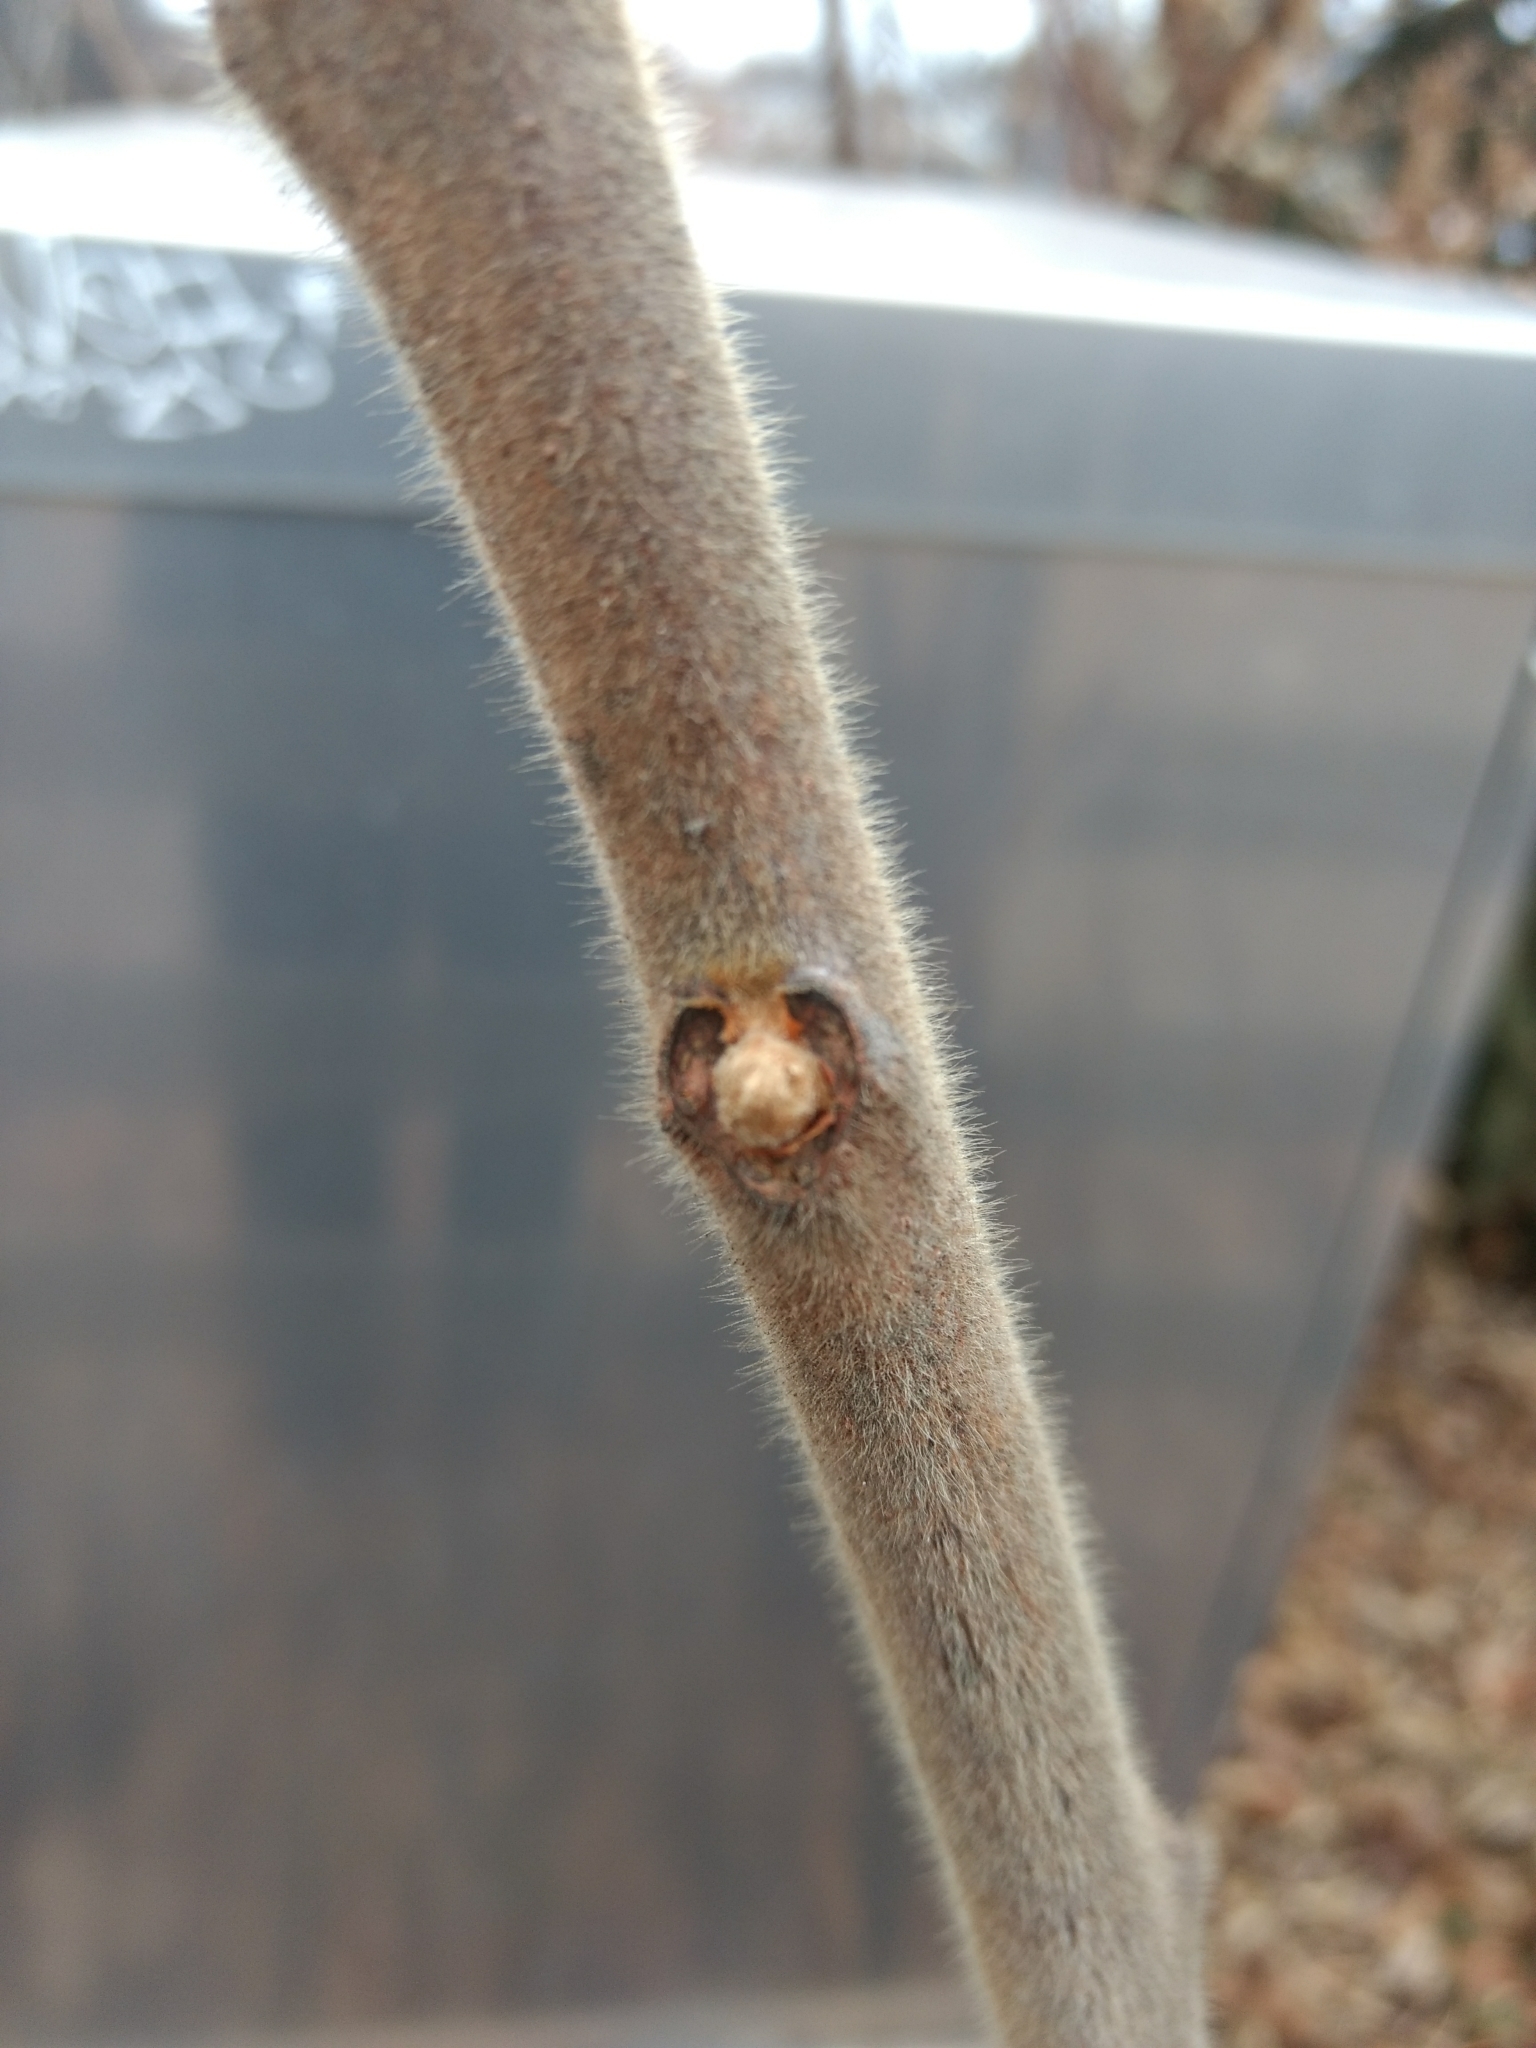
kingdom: Plantae
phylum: Tracheophyta
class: Magnoliopsida
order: Sapindales
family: Anacardiaceae
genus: Rhus
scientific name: Rhus typhina
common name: Staghorn sumac
